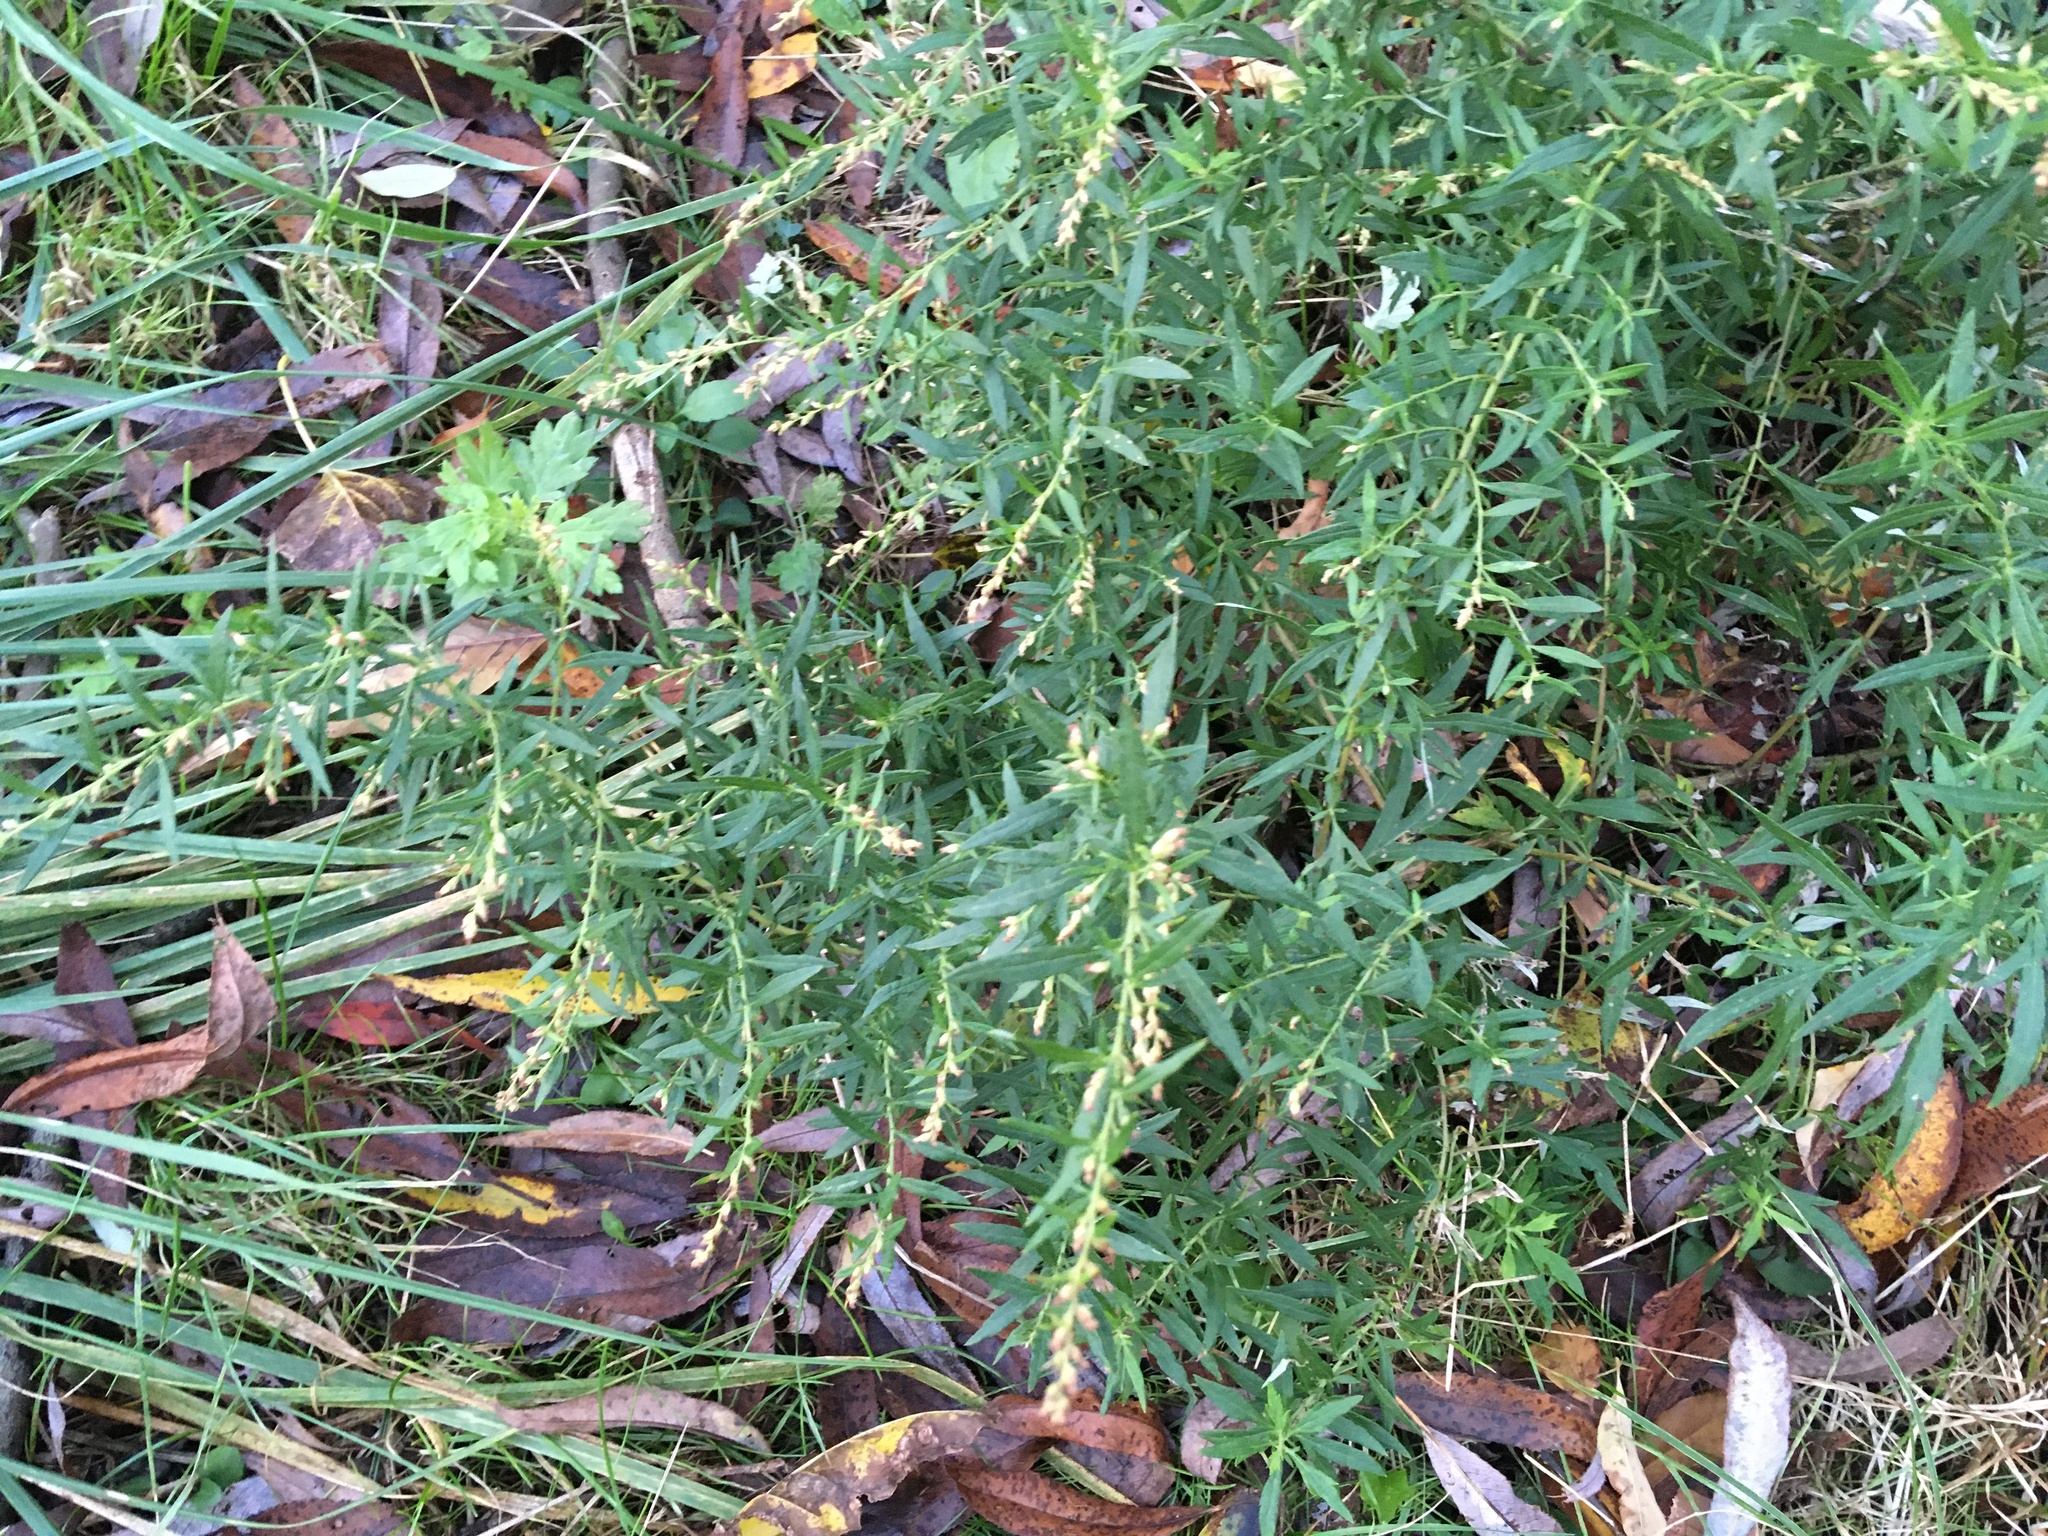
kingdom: Plantae
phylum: Tracheophyta
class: Magnoliopsida
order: Asterales
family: Asteraceae
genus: Artemisia
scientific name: Artemisia vulgaris
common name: Mugwort
